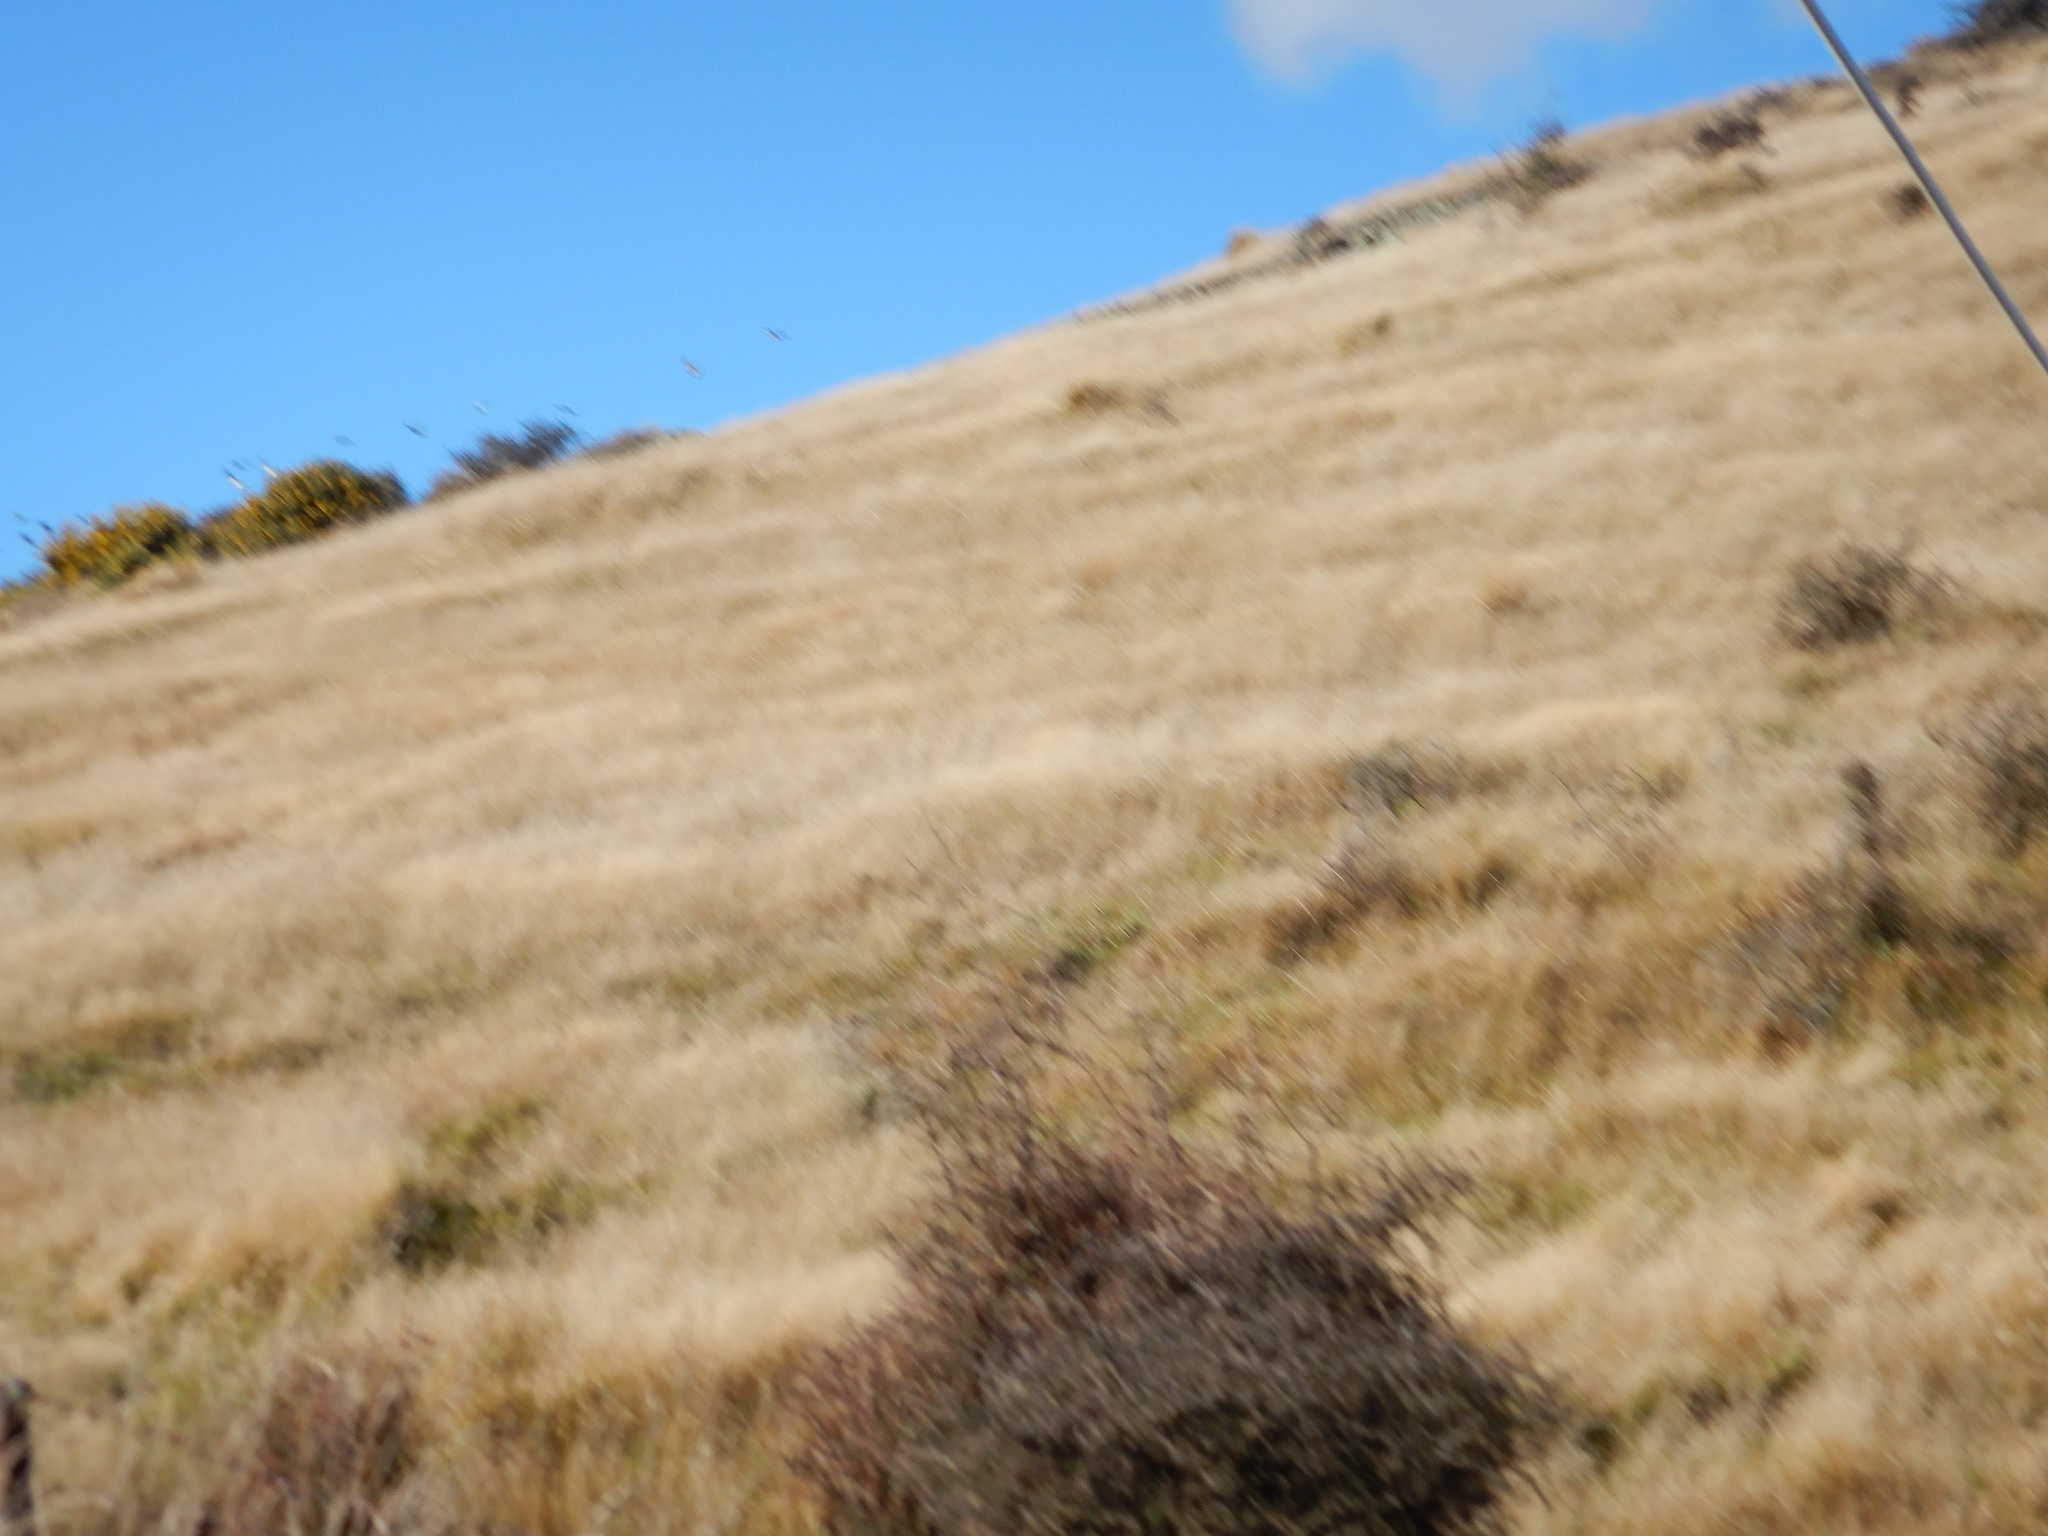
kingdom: Animalia
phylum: Chordata
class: Aves
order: Columbiformes
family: Columbidae
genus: Columba
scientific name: Columba livia
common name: Rock pigeon
